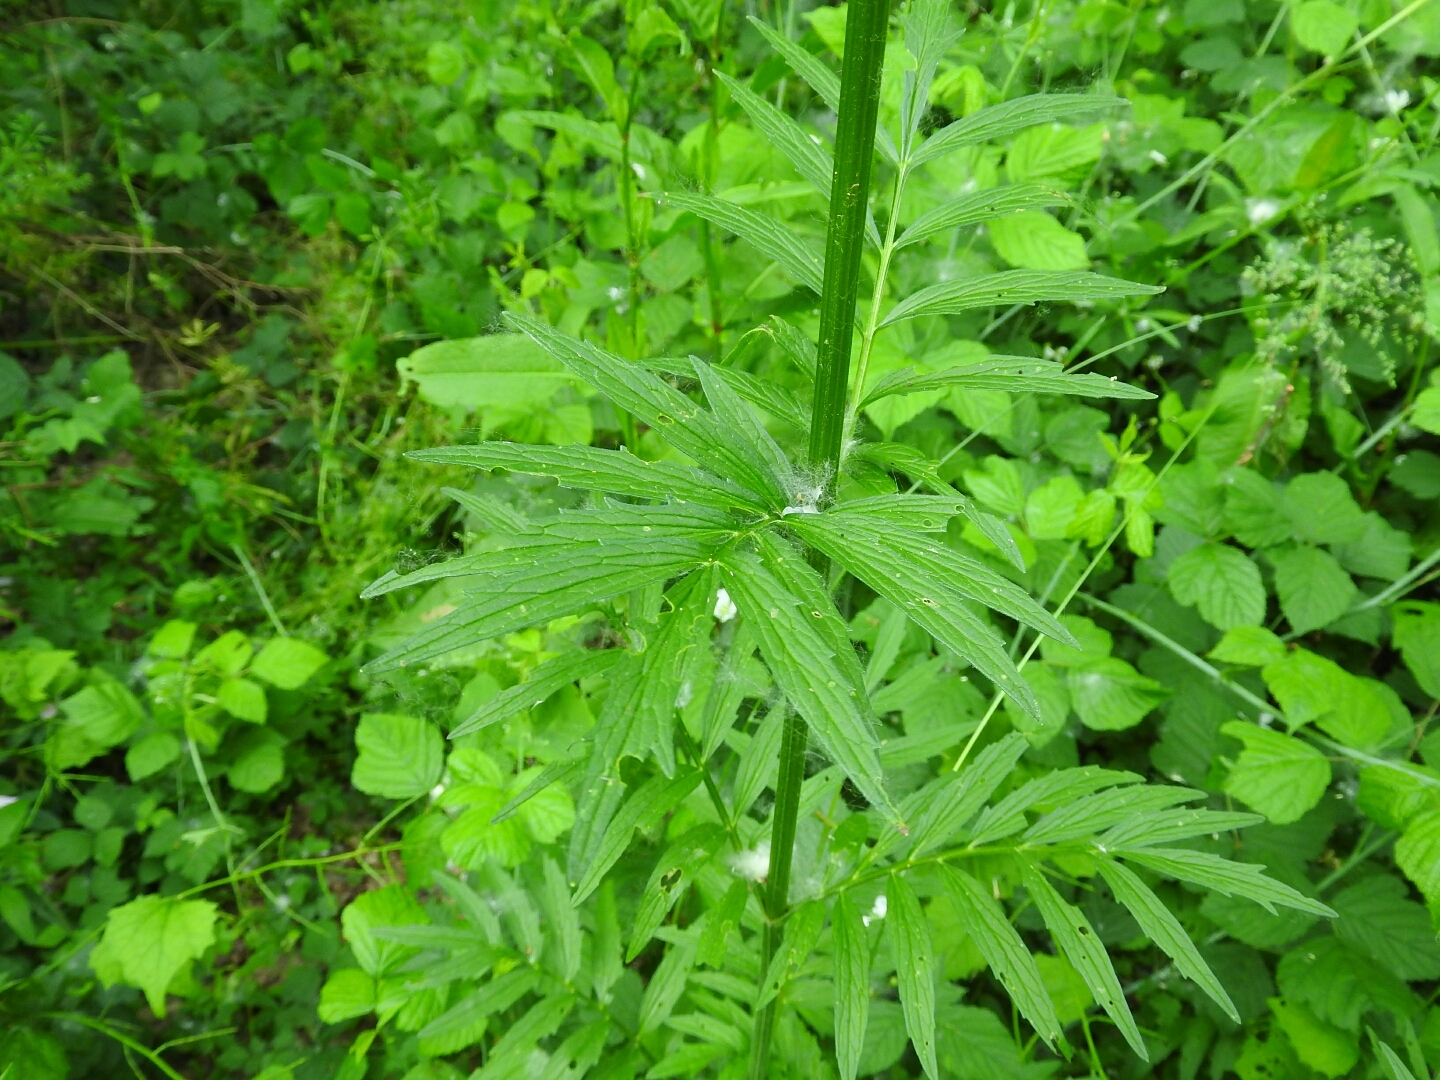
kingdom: Plantae
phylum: Tracheophyta
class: Magnoliopsida
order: Dipsacales
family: Caprifoliaceae
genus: Valeriana
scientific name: Valeriana officinalis
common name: Common valerian
